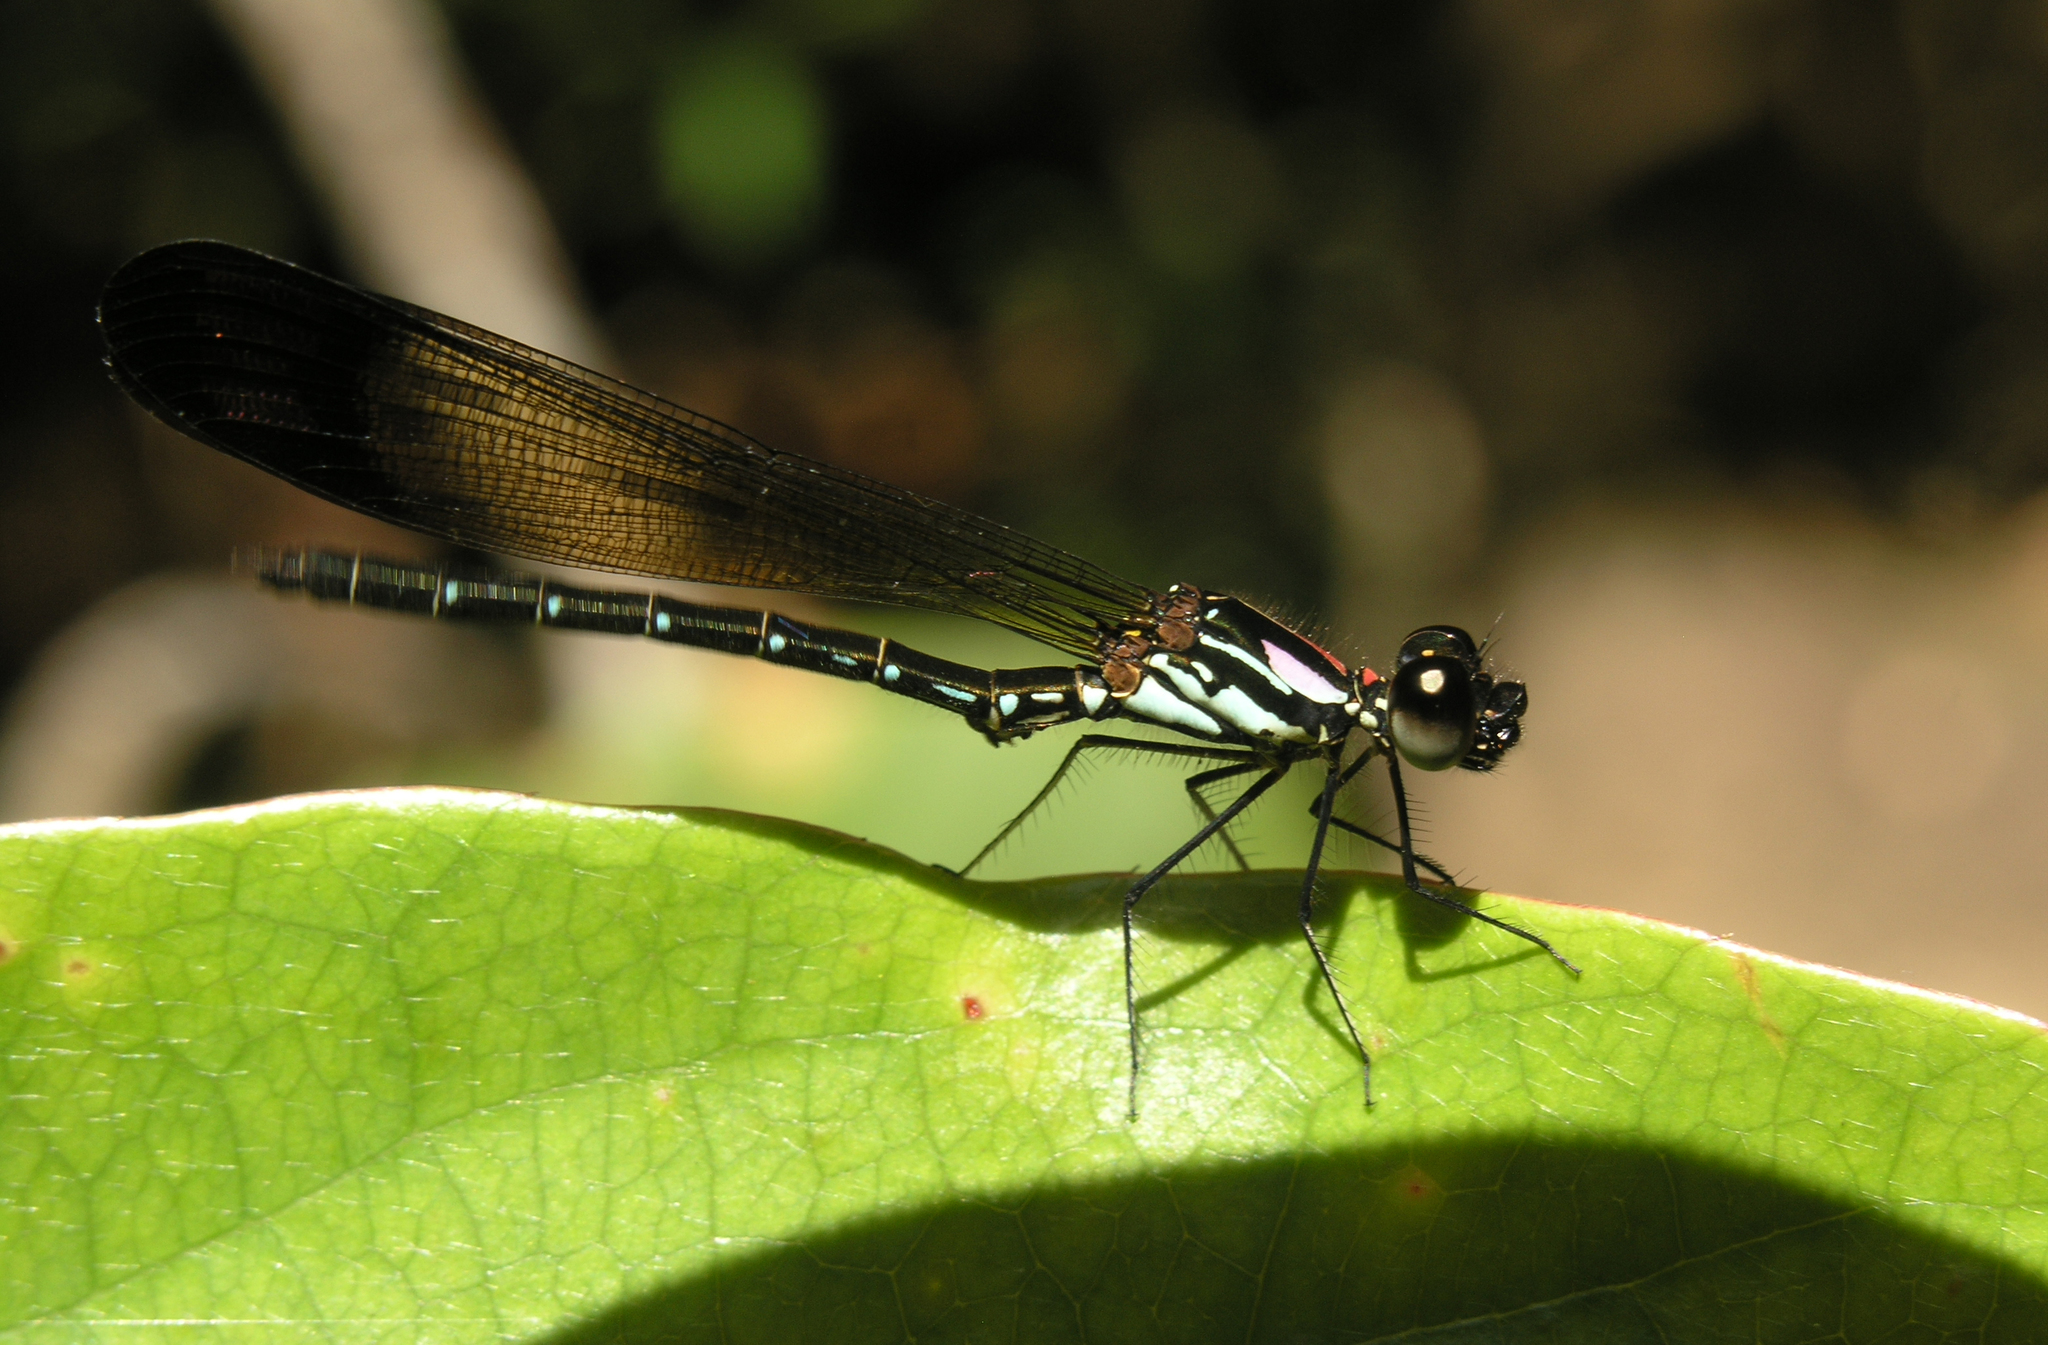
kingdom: Animalia
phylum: Arthropoda
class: Insecta
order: Odonata
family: Chlorocyphidae
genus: Heliocypha
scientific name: Heliocypha biforata
